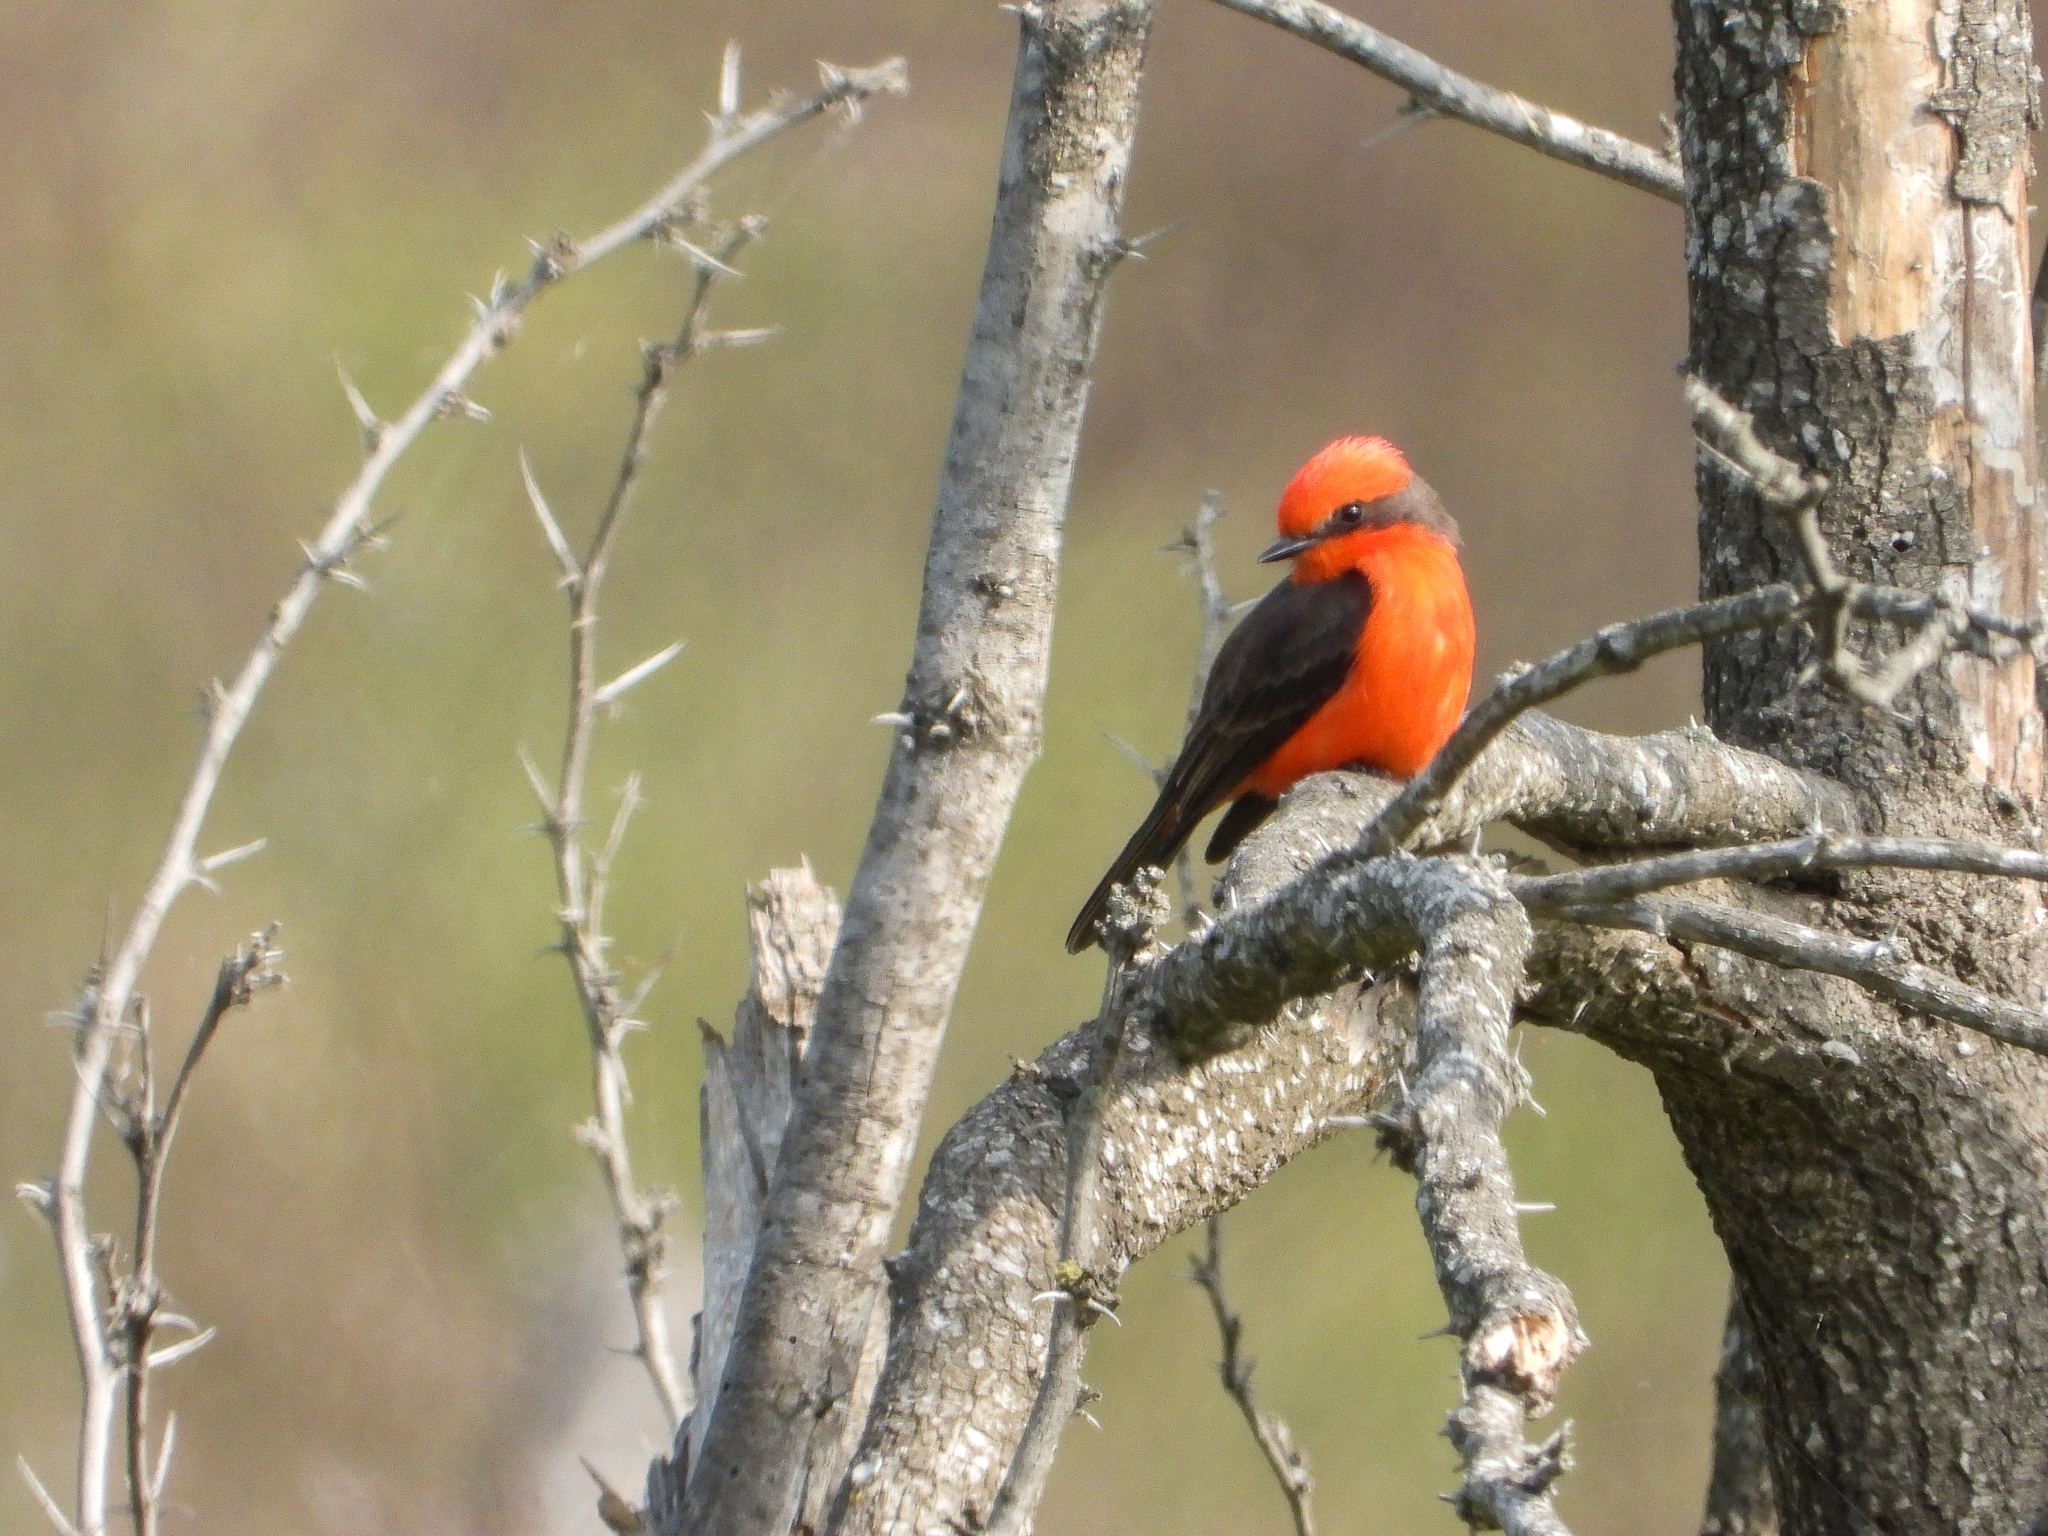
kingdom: Animalia
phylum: Chordata
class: Aves
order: Passeriformes
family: Tyrannidae
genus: Pyrocephalus
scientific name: Pyrocephalus rubinus
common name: Vermilion flycatcher
